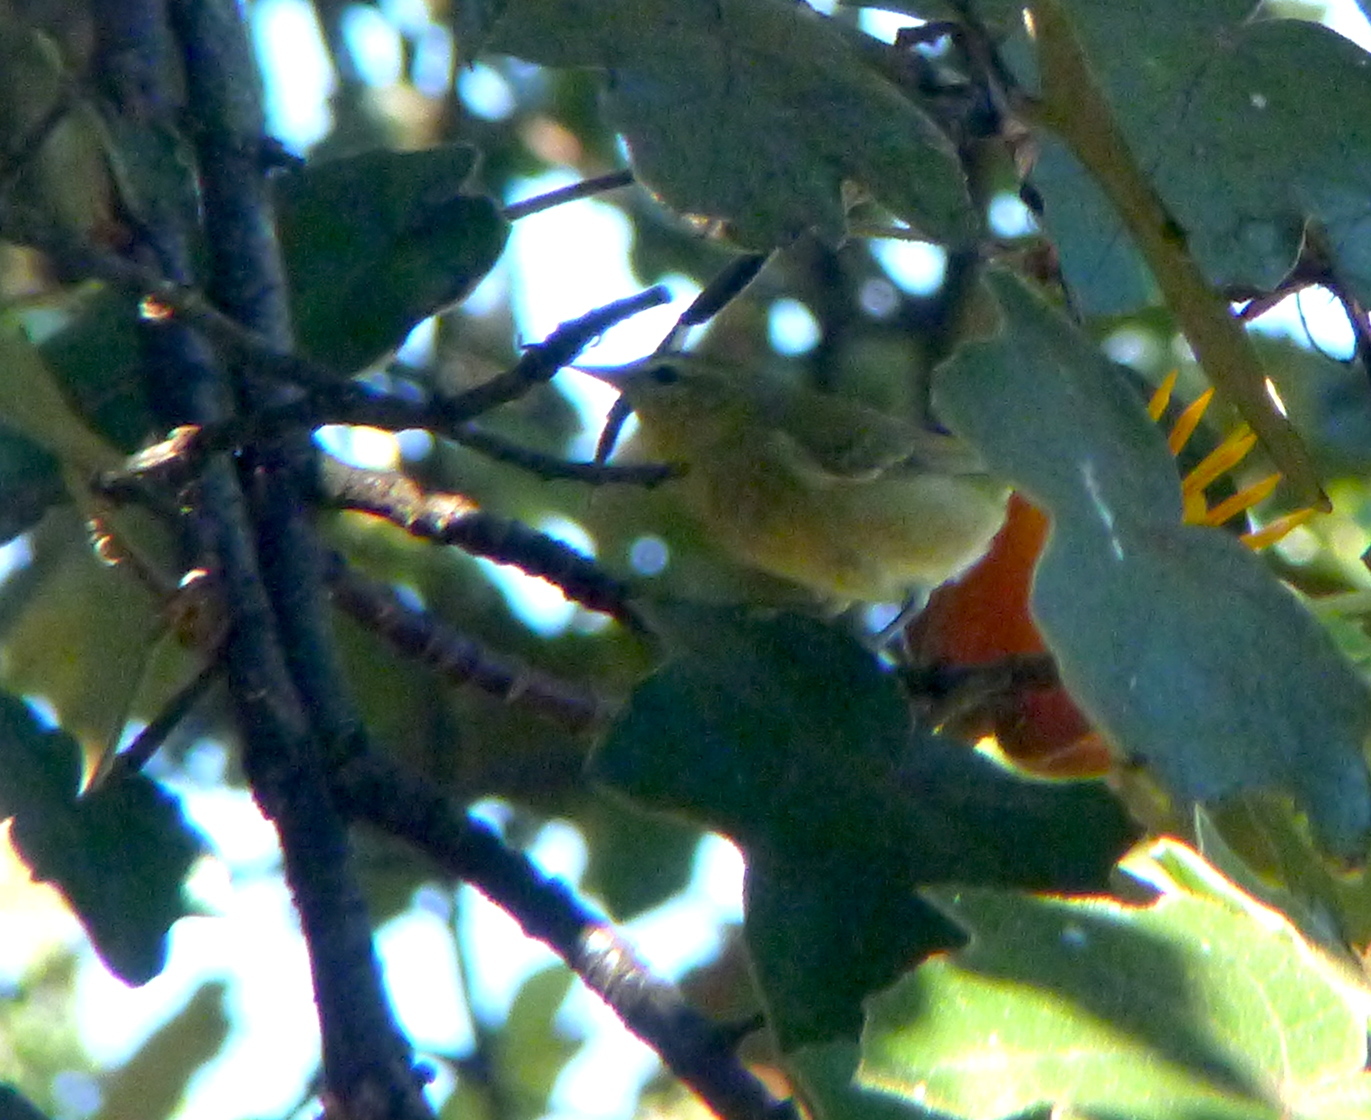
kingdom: Animalia
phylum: Chordata
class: Aves
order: Passeriformes
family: Parulidae
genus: Leiothlypis
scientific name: Leiothlypis peregrina
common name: Tennessee warbler
